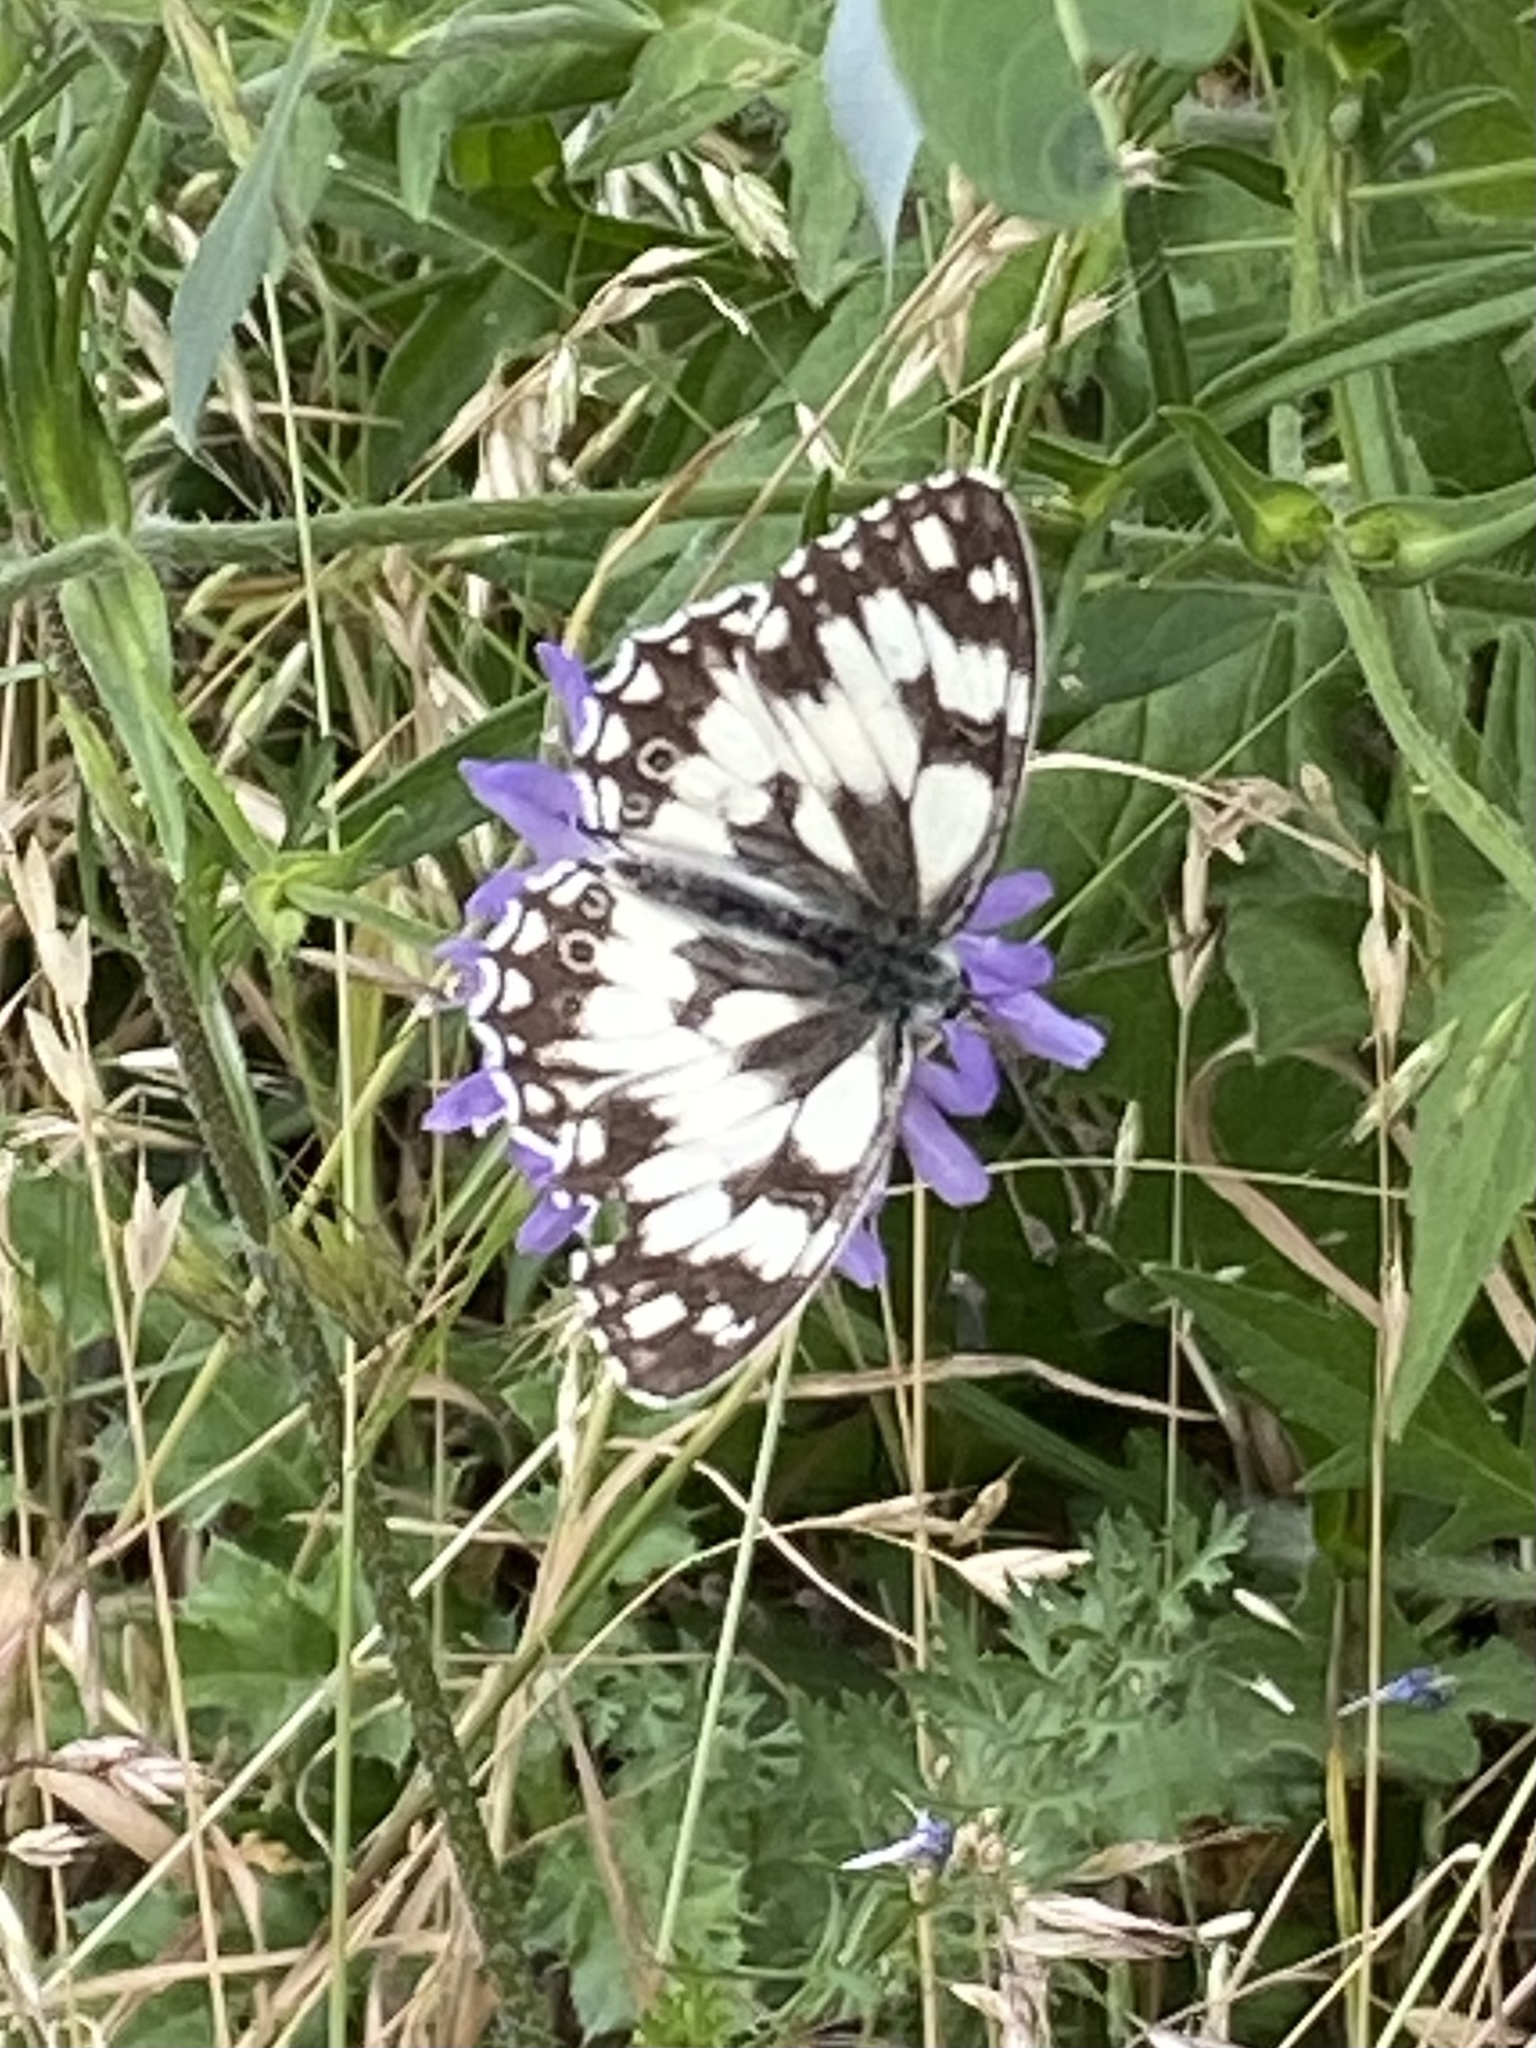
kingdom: Animalia
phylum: Arthropoda
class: Insecta
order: Lepidoptera
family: Nymphalidae
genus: Melanargia
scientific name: Melanargia galathea
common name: Marbled white
